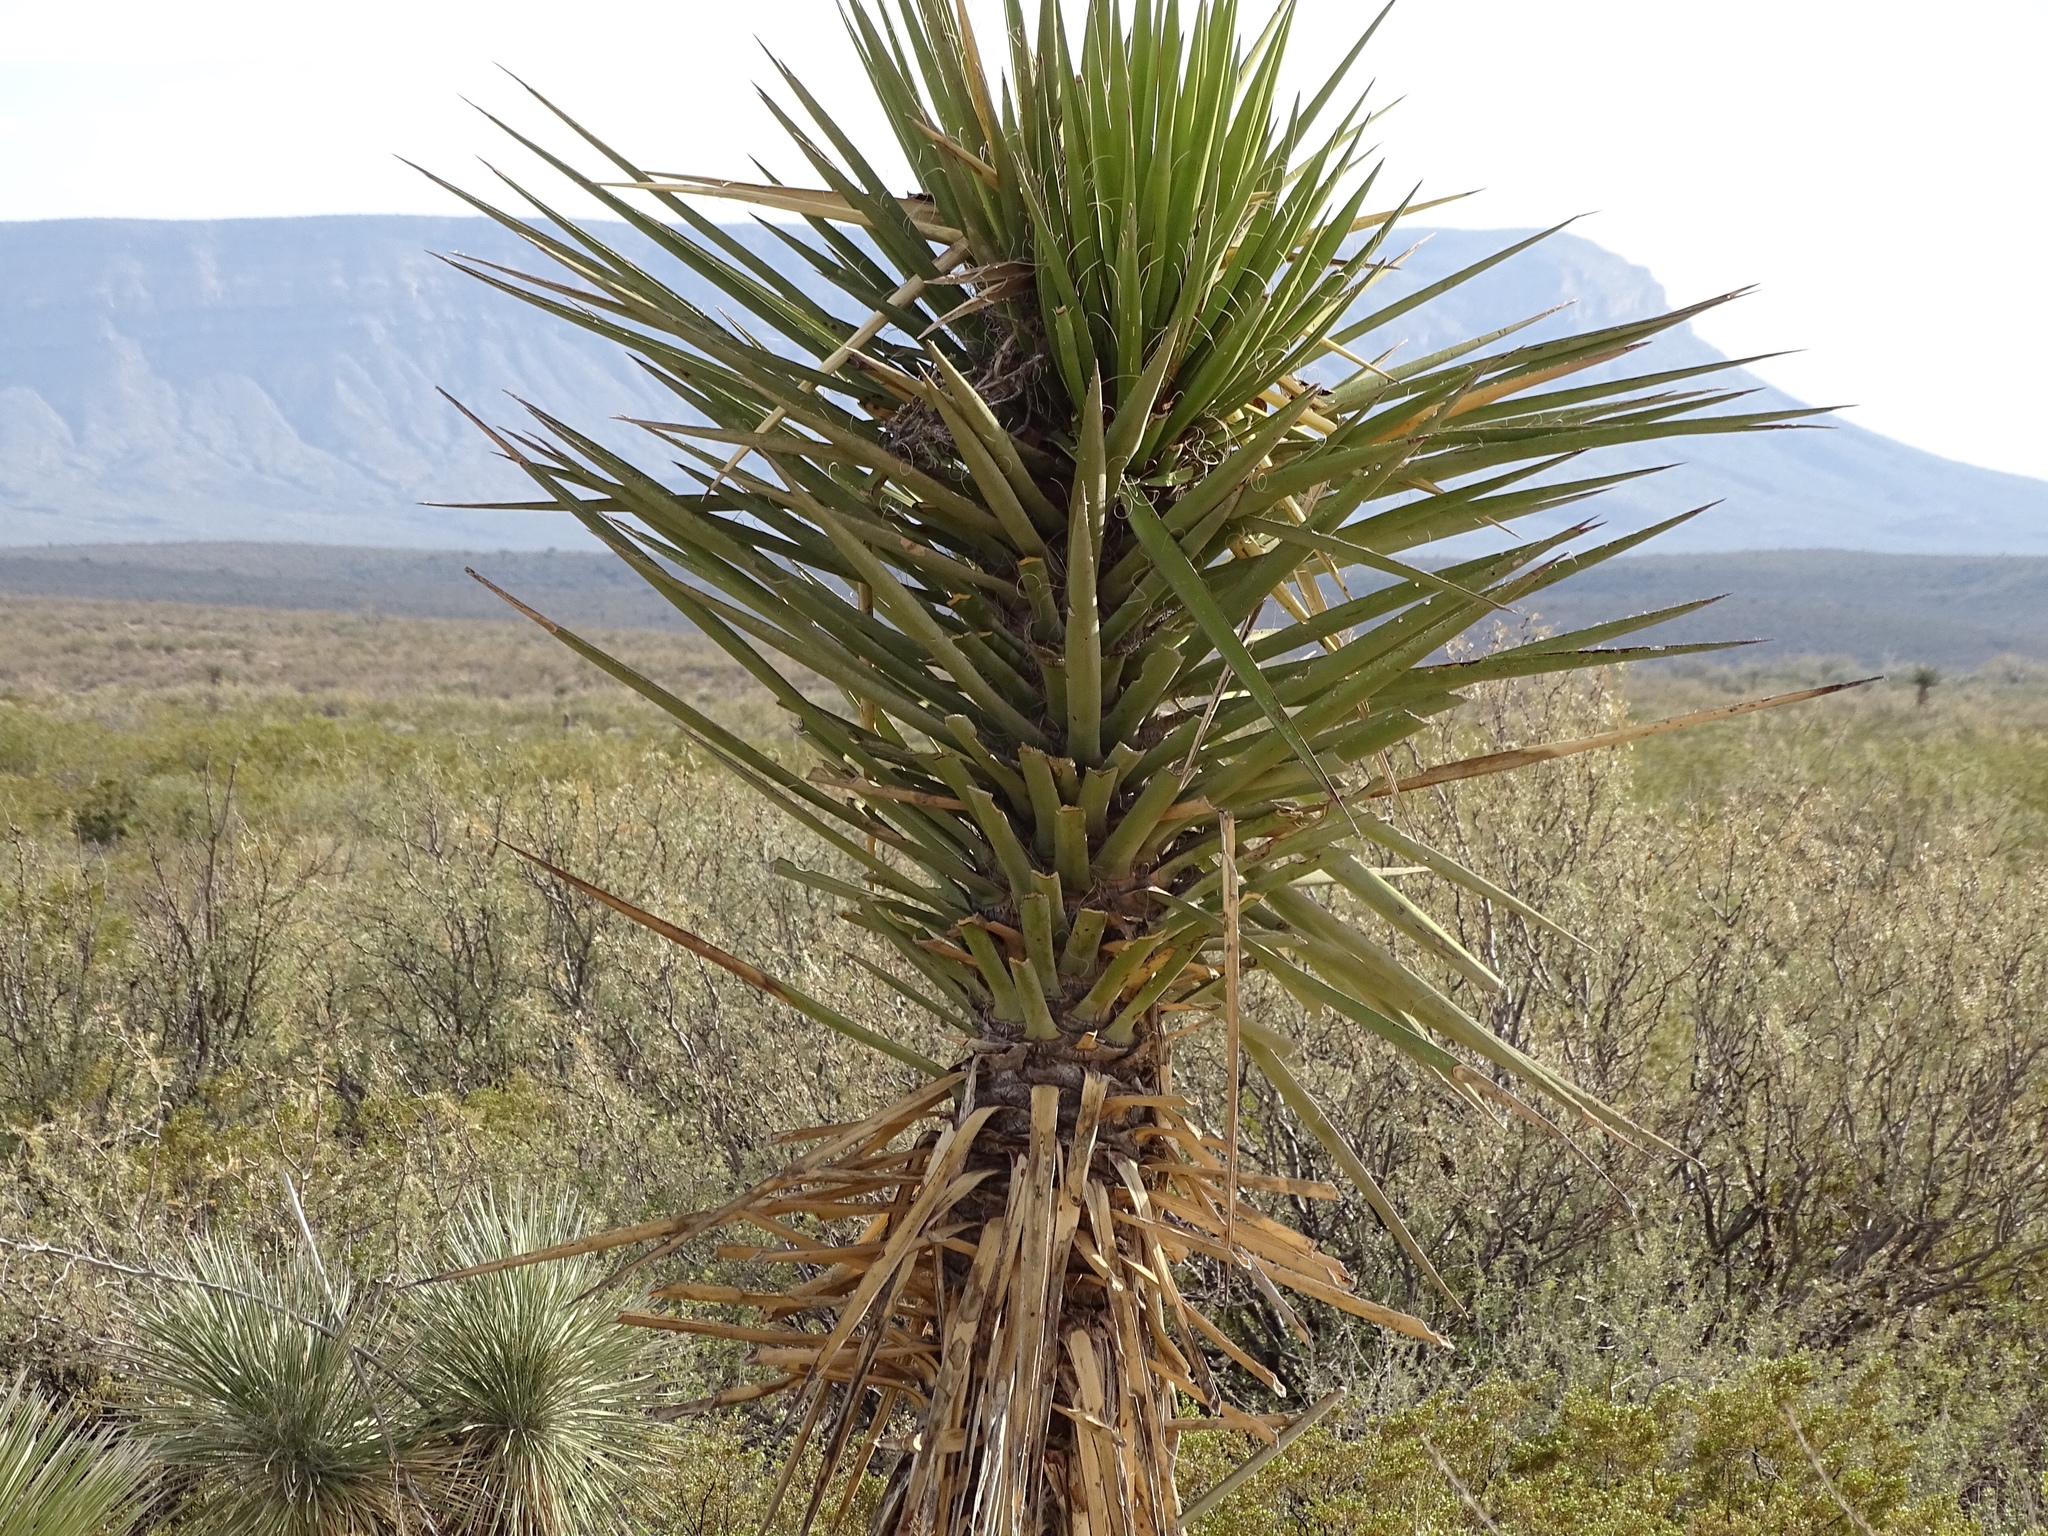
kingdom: Plantae
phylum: Tracheophyta
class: Liliopsida
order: Asparagales
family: Asparagaceae
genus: Yucca
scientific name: Yucca treculiana
